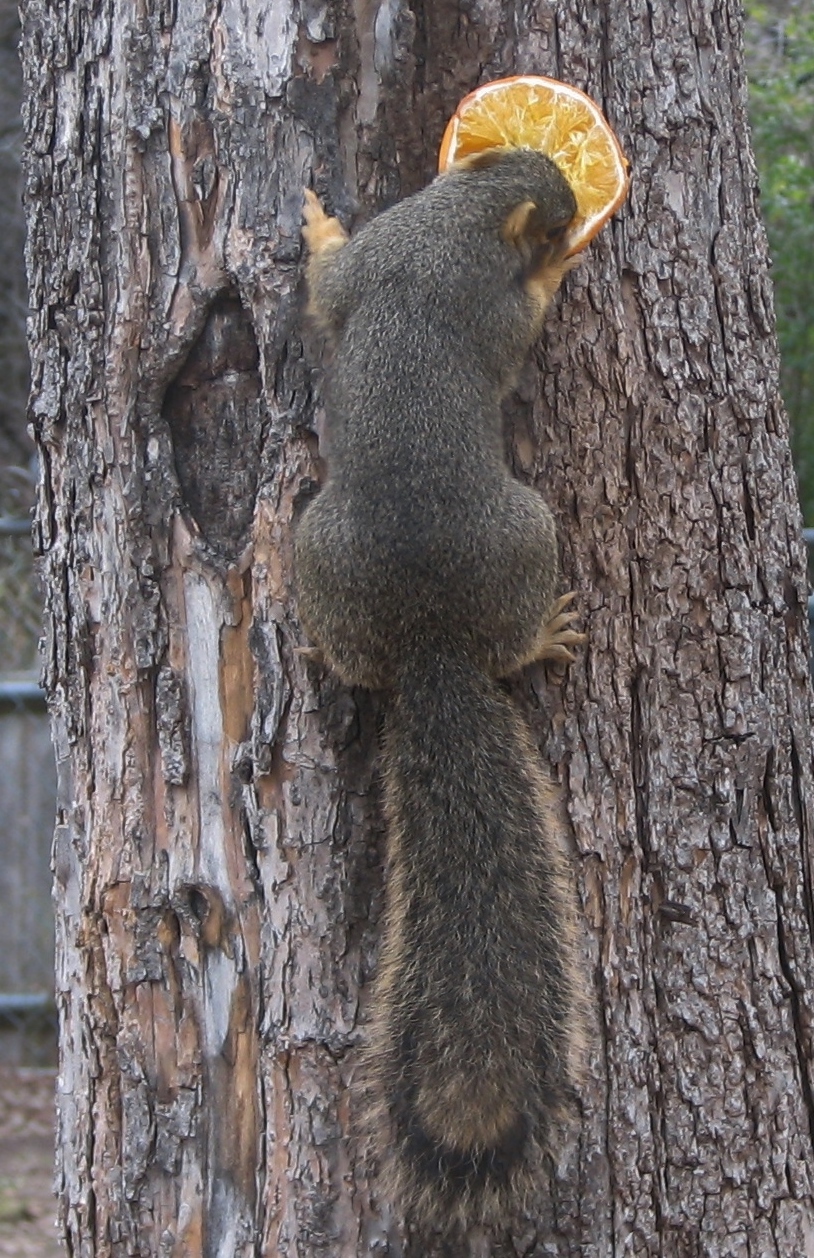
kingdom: Animalia
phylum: Chordata
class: Mammalia
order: Rodentia
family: Sciuridae
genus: Sciurus
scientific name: Sciurus niger
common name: Fox squirrel
